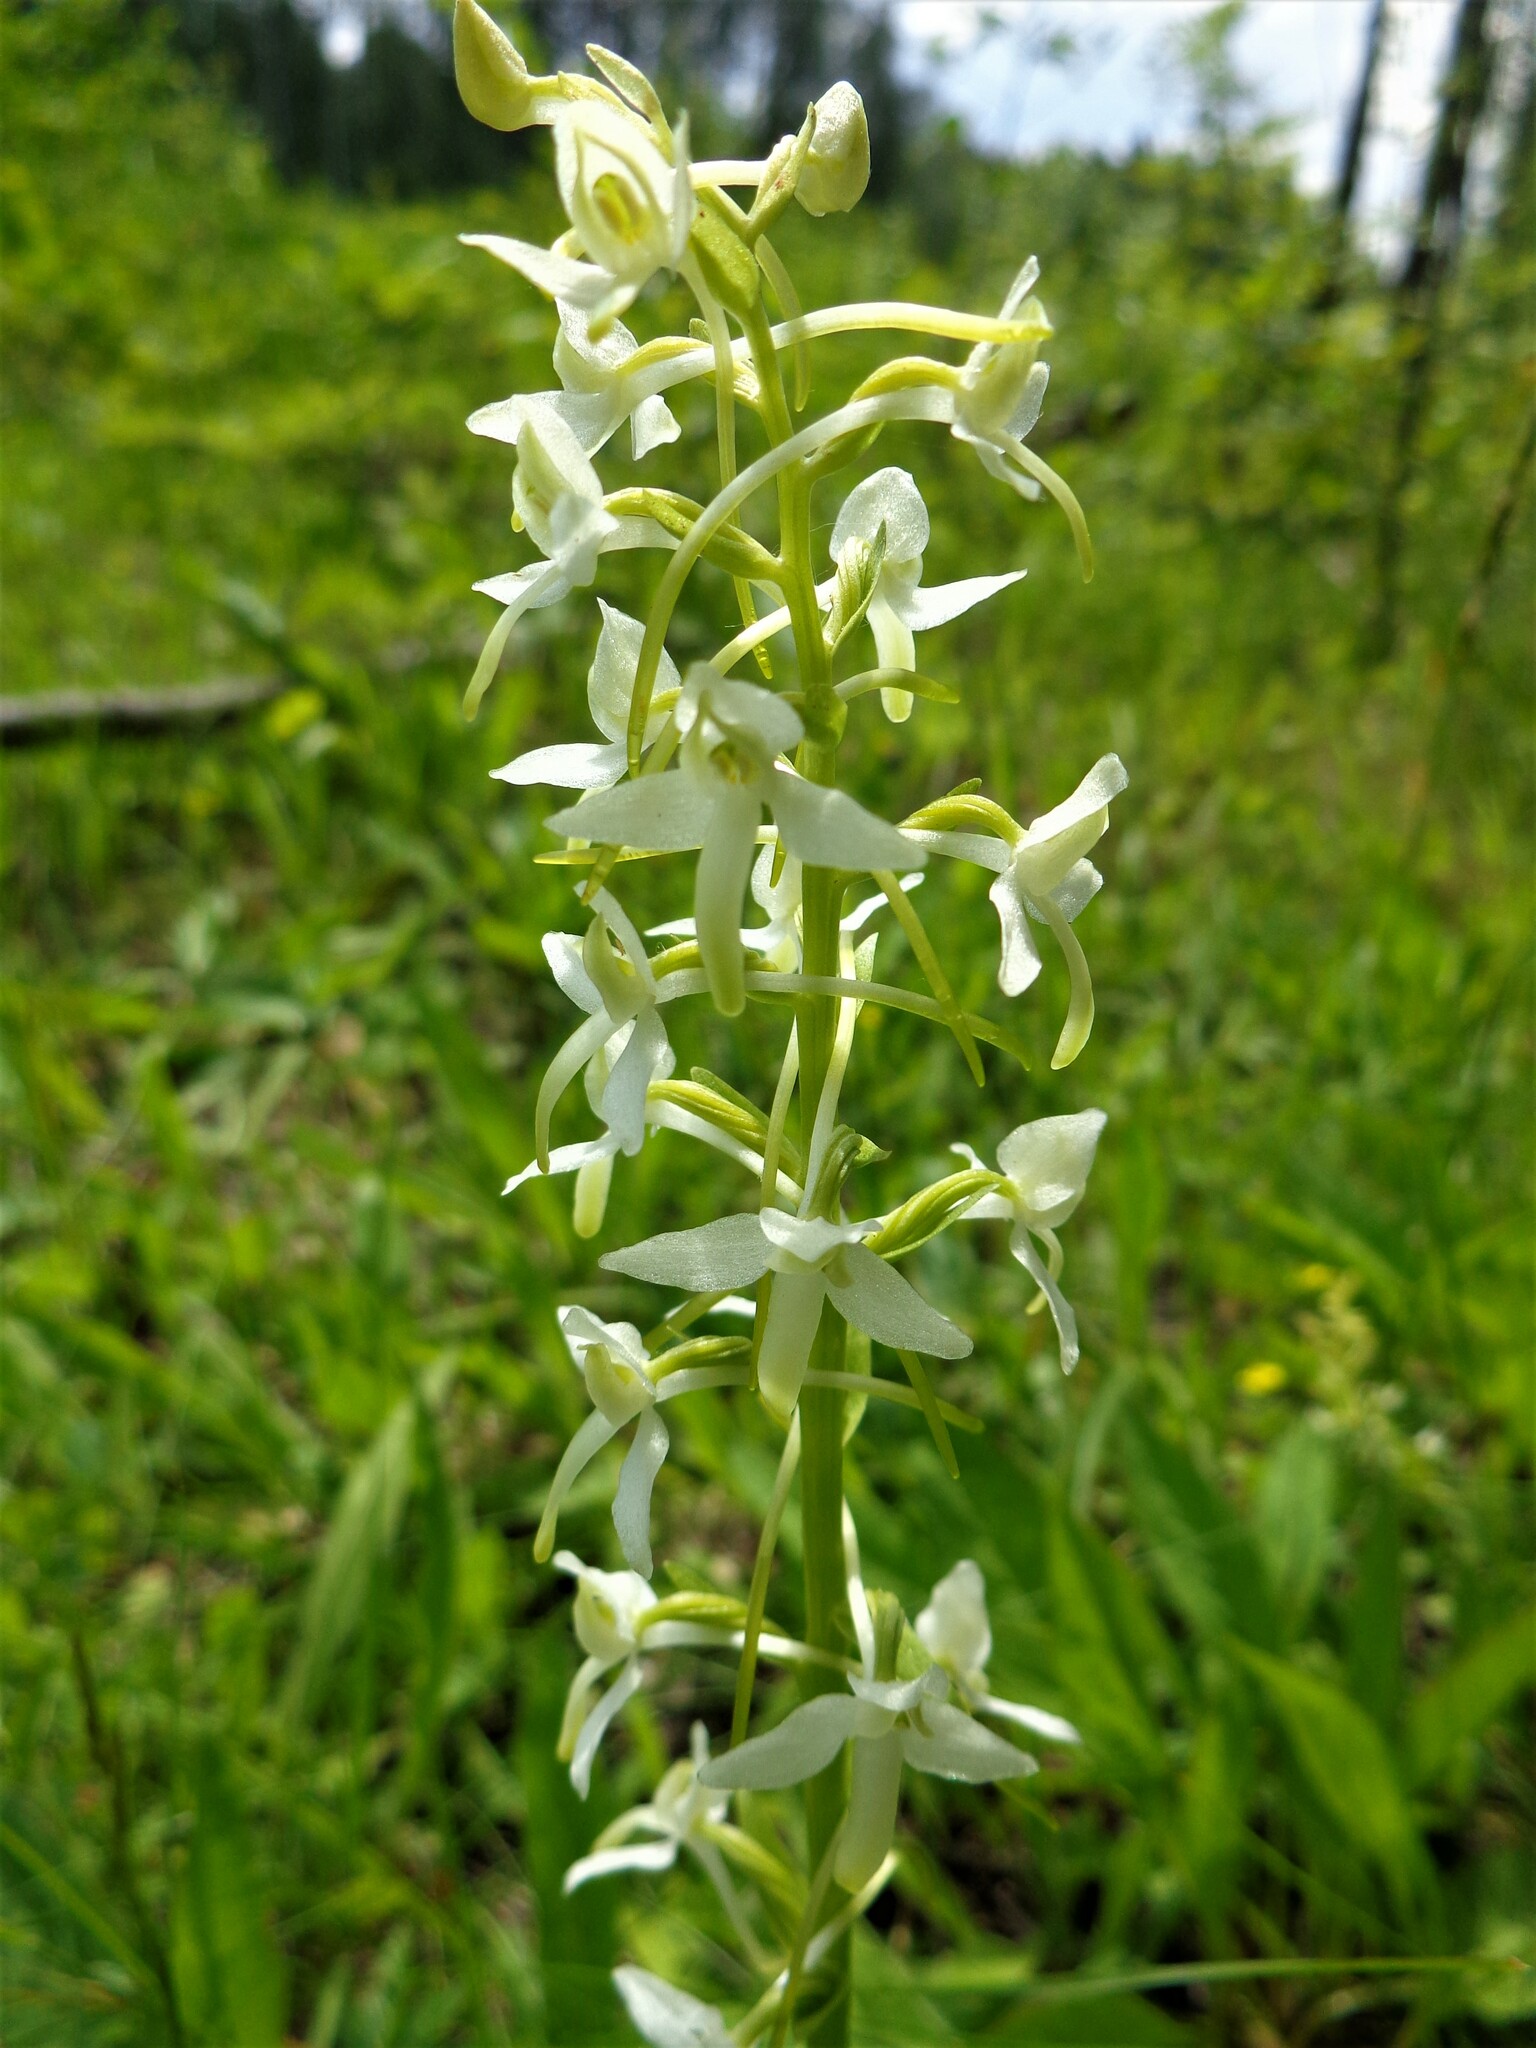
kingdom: Plantae
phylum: Tracheophyta
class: Liliopsida
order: Asparagales
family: Orchidaceae
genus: Platanthera
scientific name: Platanthera bifolia
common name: Lesser butterfly-orchid
